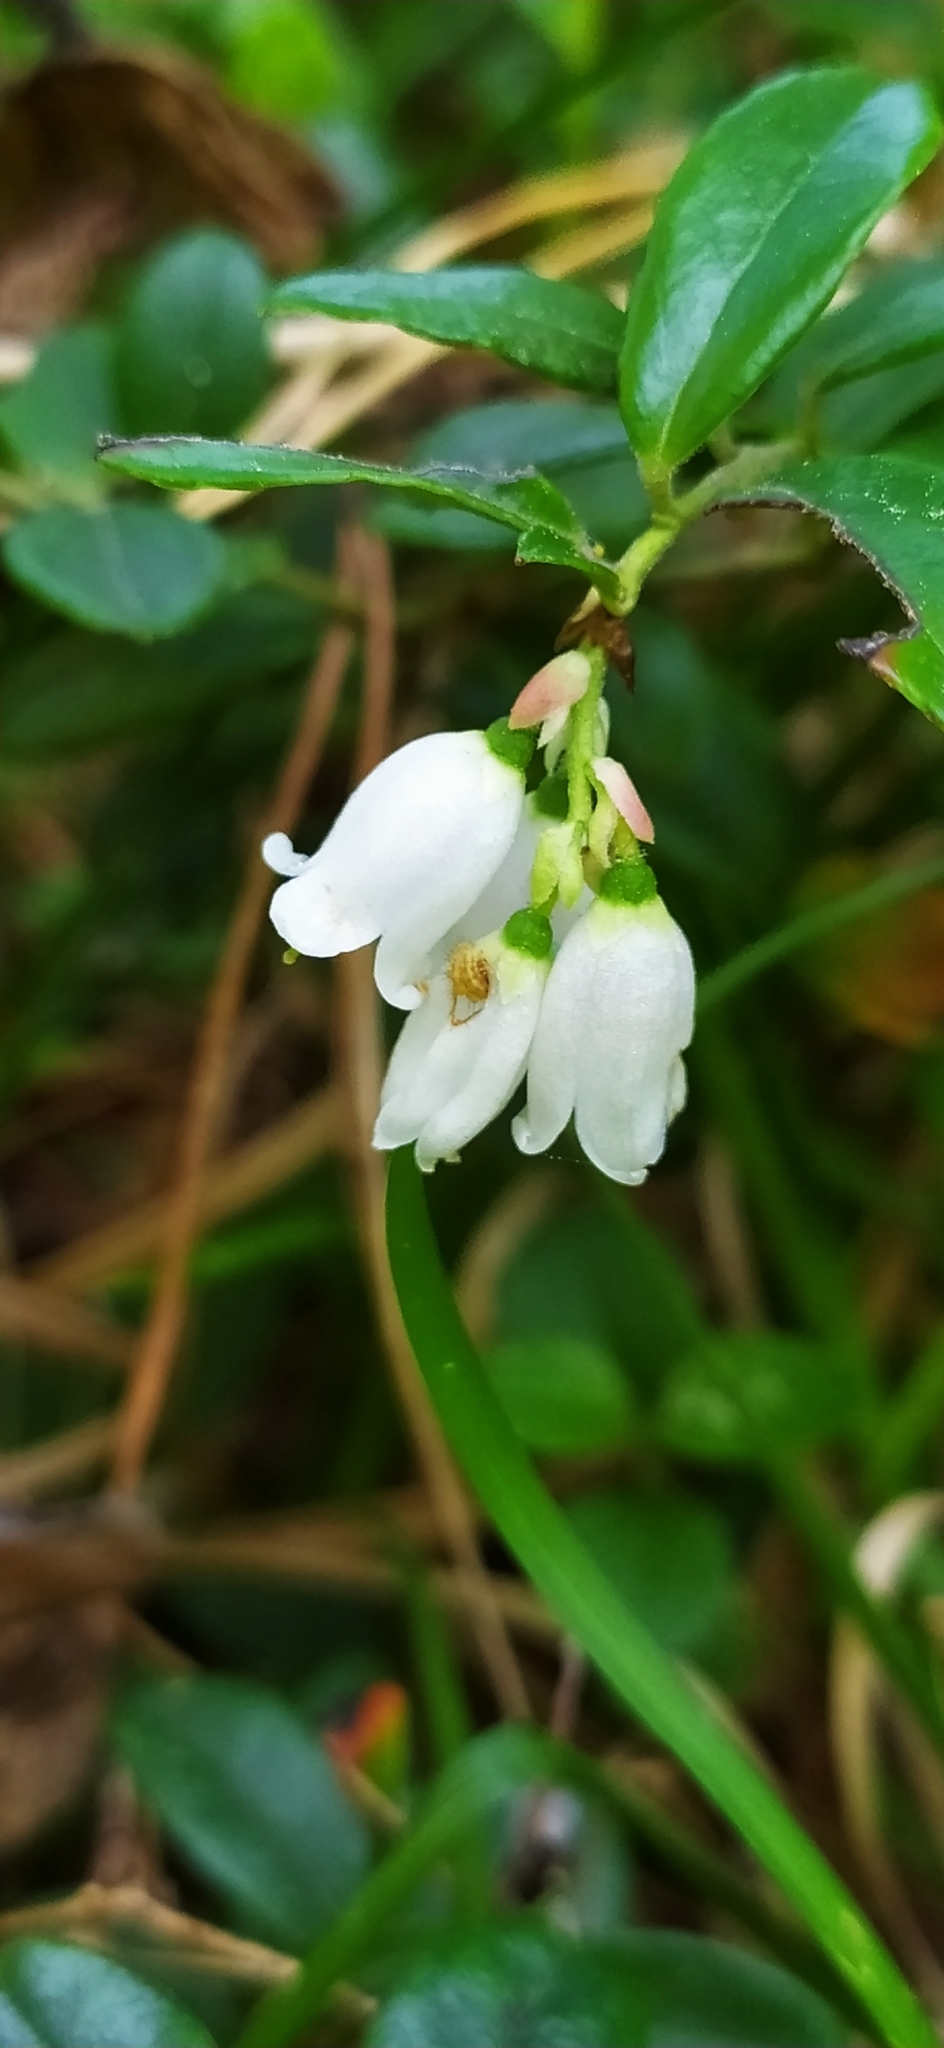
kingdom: Plantae
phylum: Tracheophyta
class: Magnoliopsida
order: Ericales
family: Ericaceae
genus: Vaccinium
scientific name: Vaccinium vitis-idaea
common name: Cowberry
